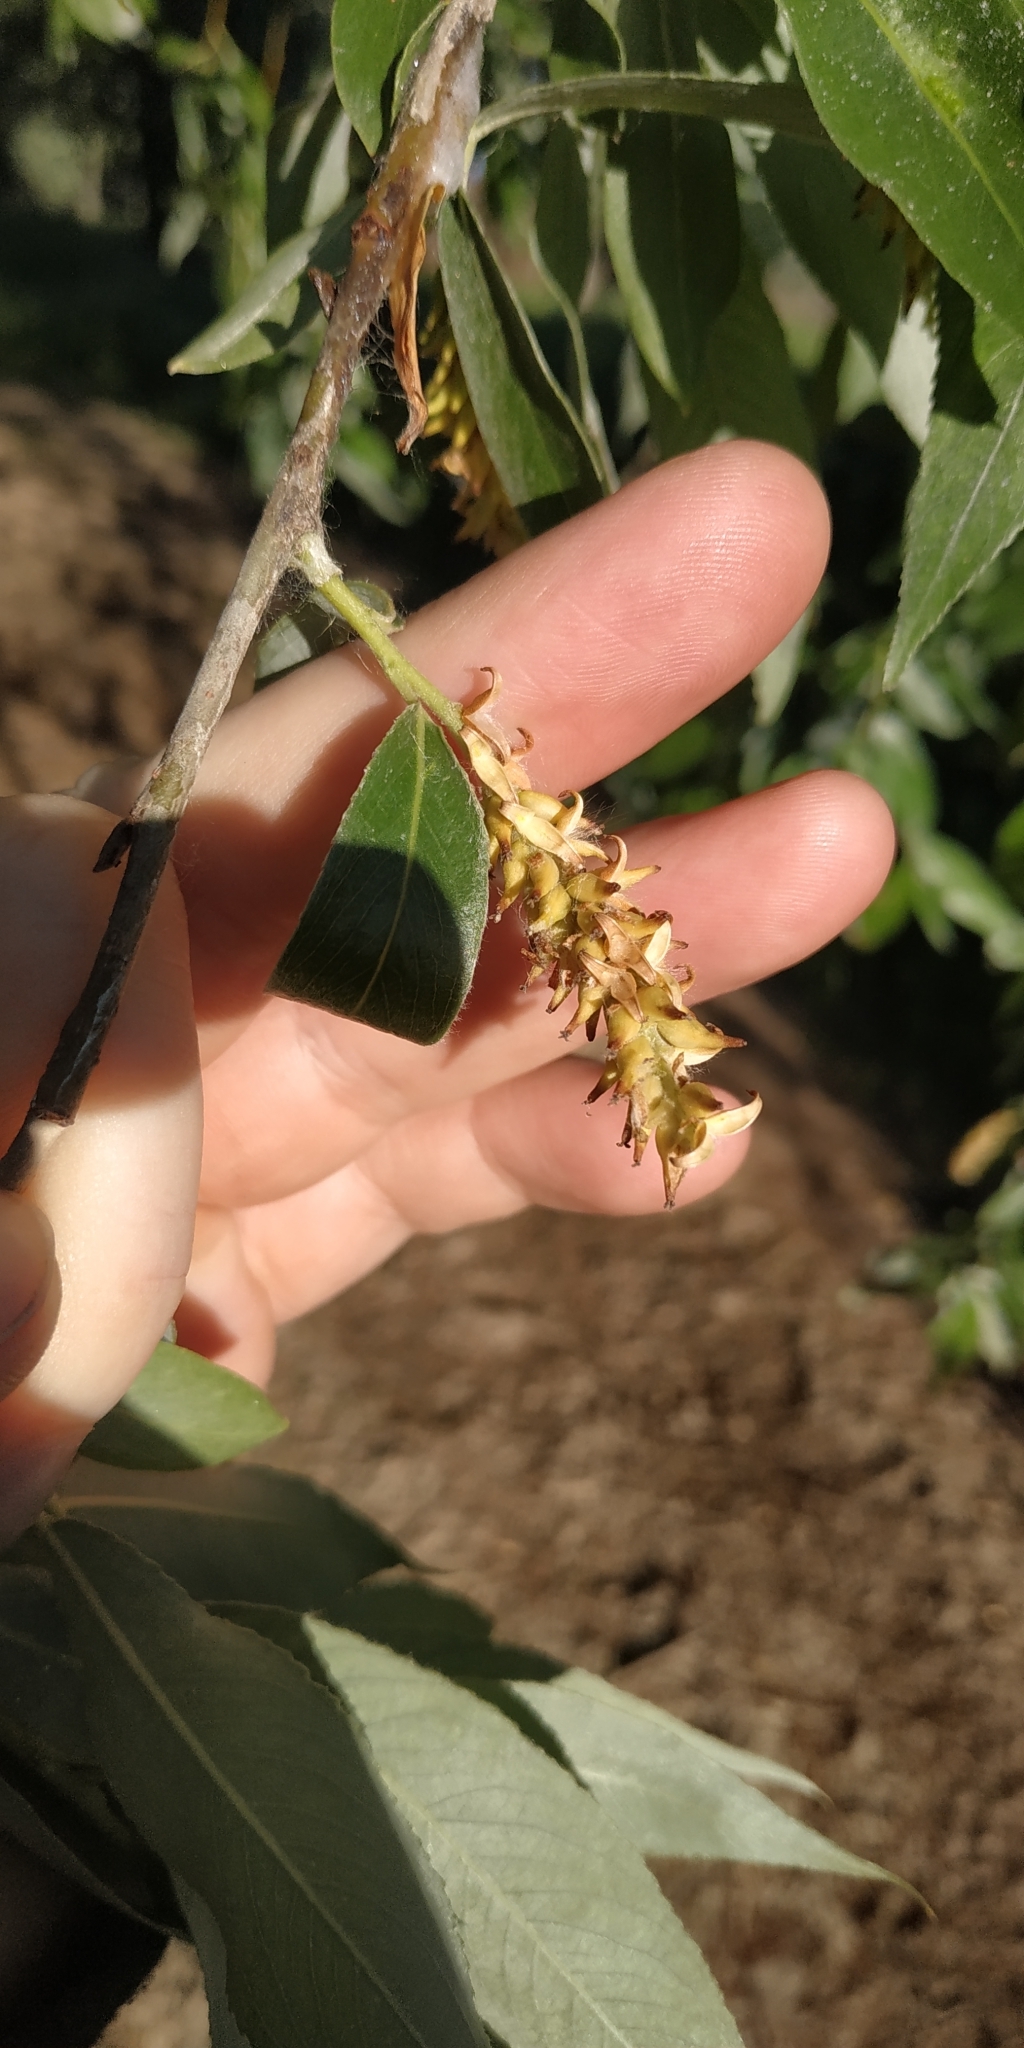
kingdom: Plantae
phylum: Tracheophyta
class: Magnoliopsida
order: Malpighiales
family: Salicaceae
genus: Salix
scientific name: Salix alba
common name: White willow
